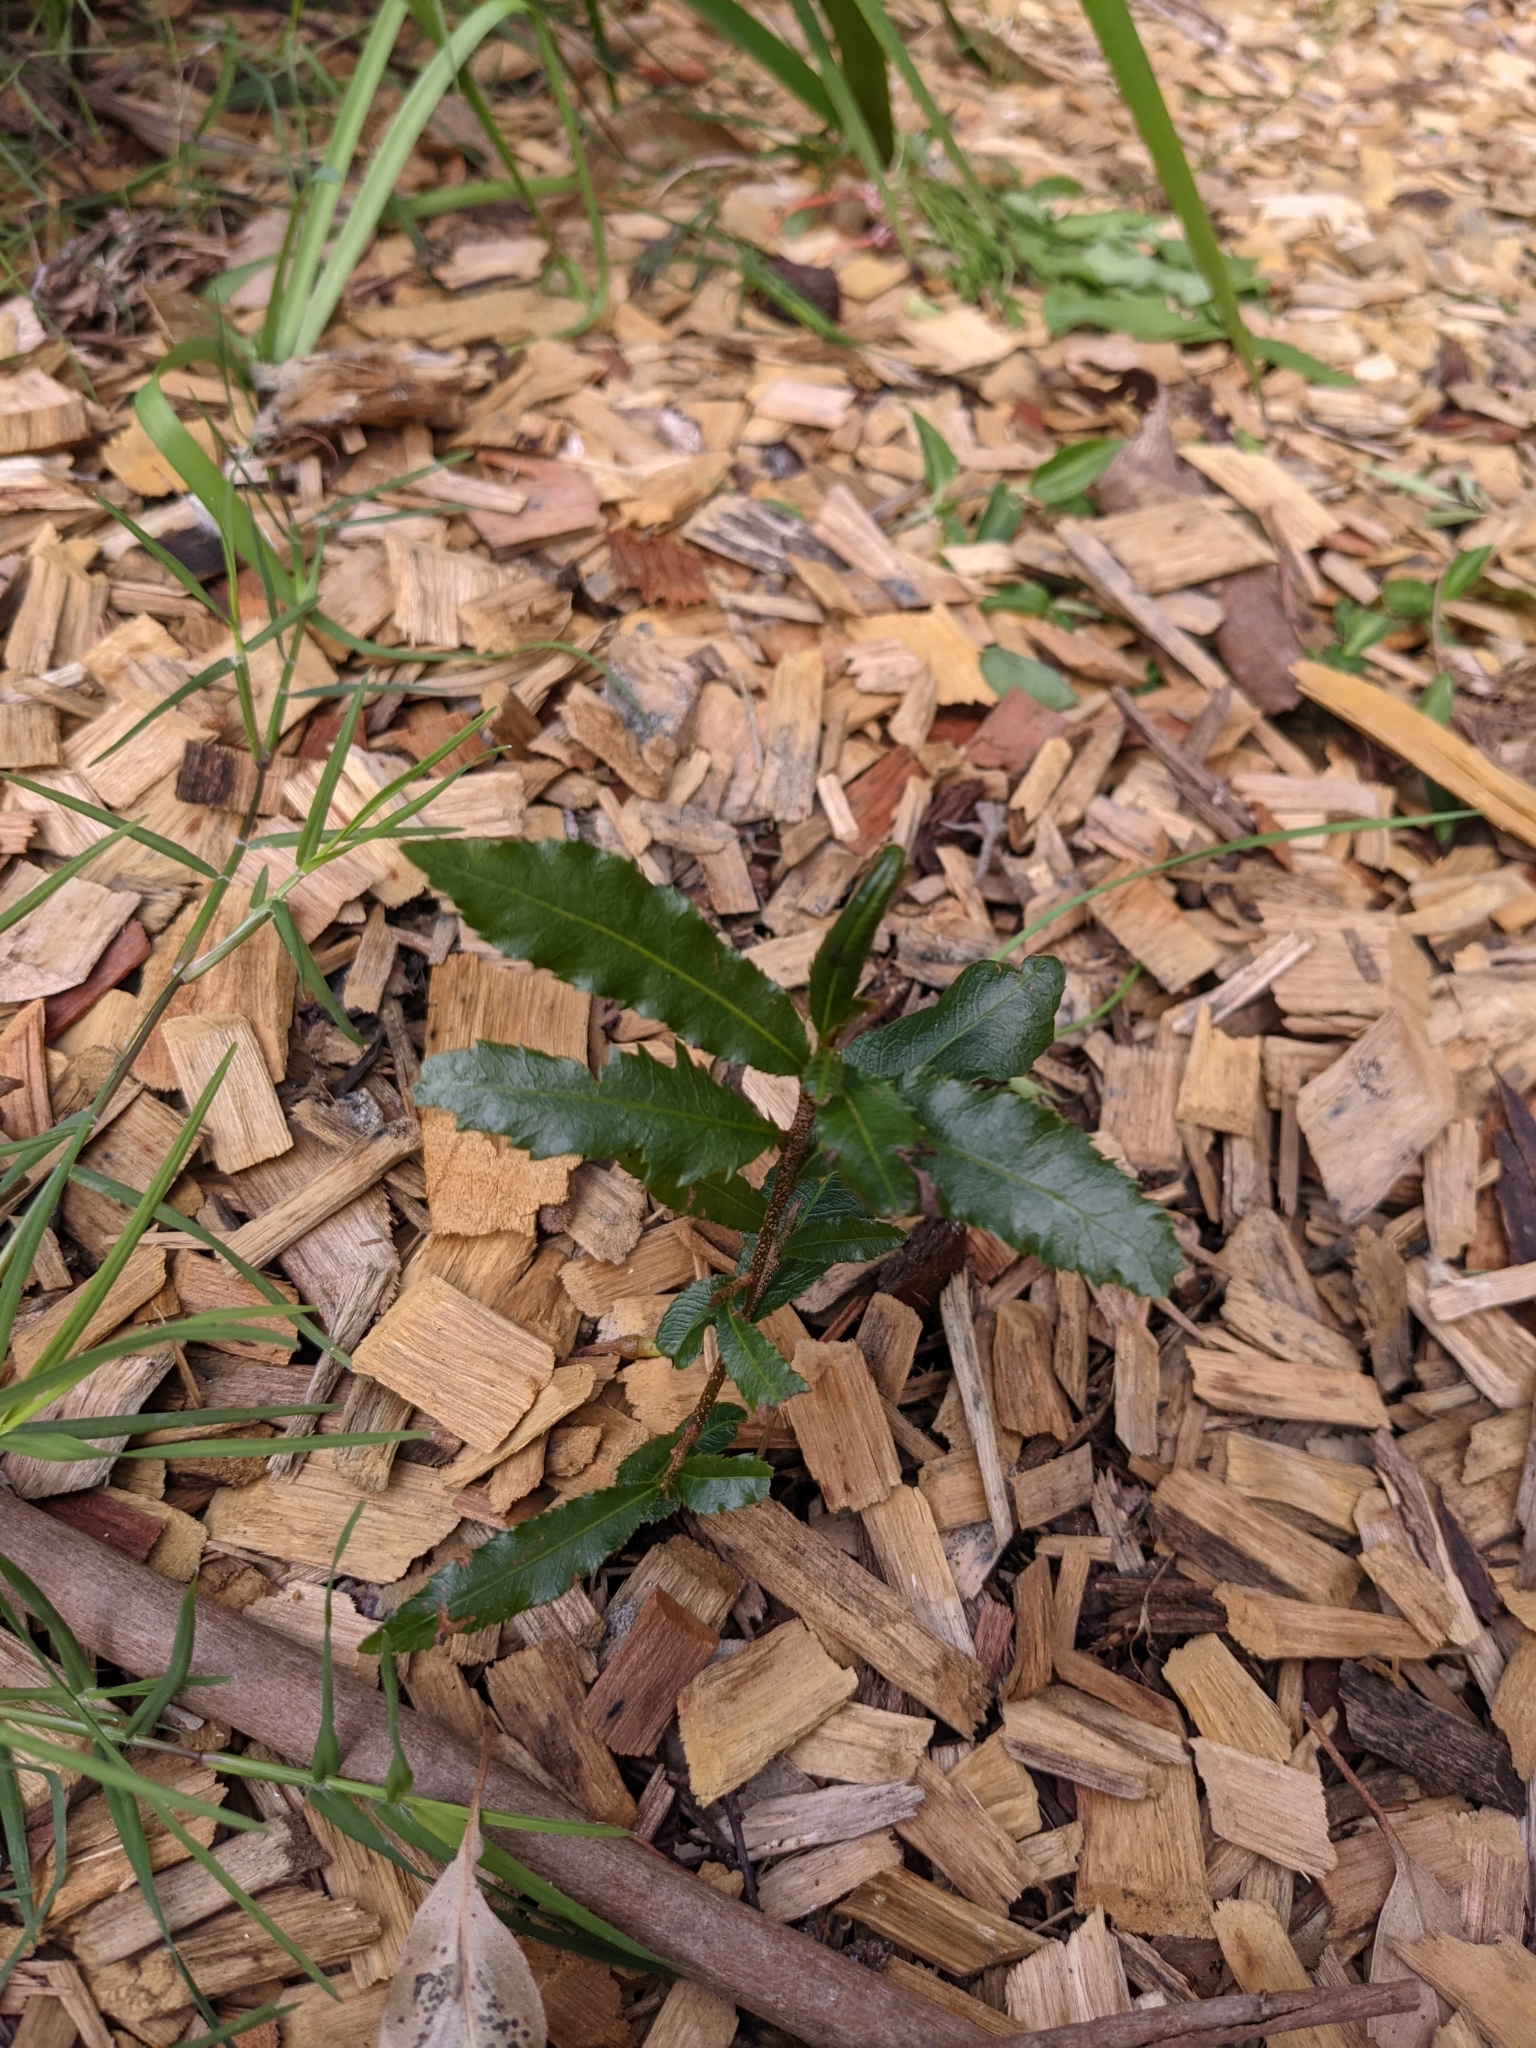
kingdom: Plantae
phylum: Tracheophyta
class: Magnoliopsida
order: Malpighiales
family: Ochnaceae
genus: Ochna
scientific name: Ochna serrulata
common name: Mickey mouse plant
